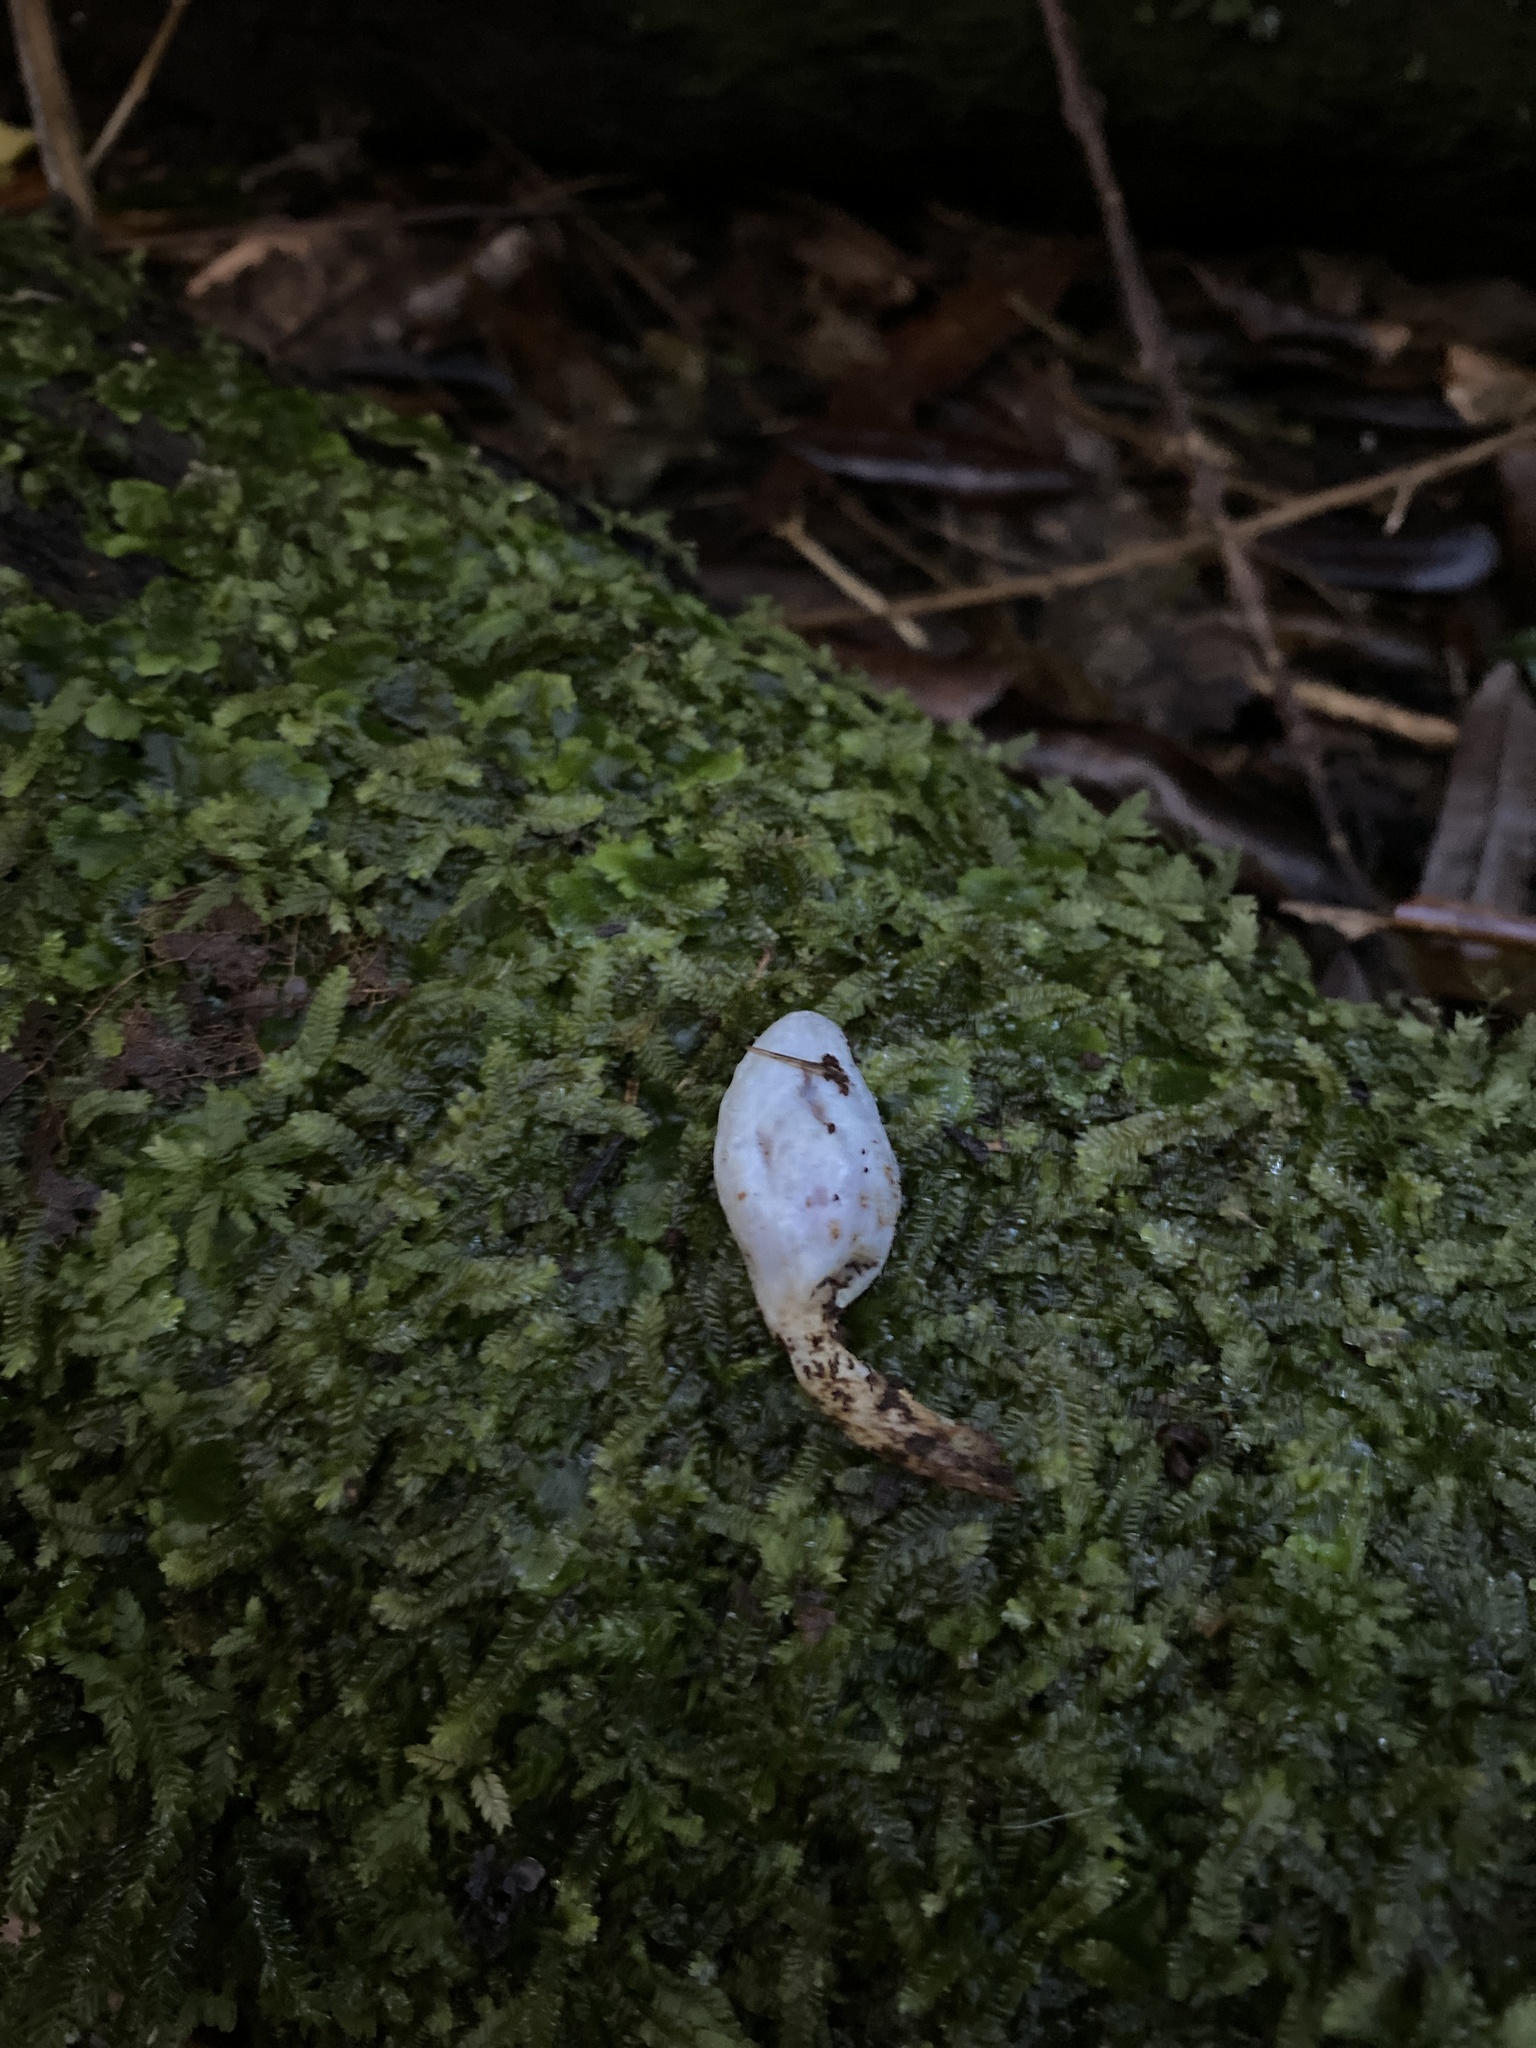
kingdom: Fungi
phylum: Basidiomycota
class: Agaricomycetes
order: Agaricales
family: Agaricaceae
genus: Clavogaster
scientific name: Clavogaster virescens
